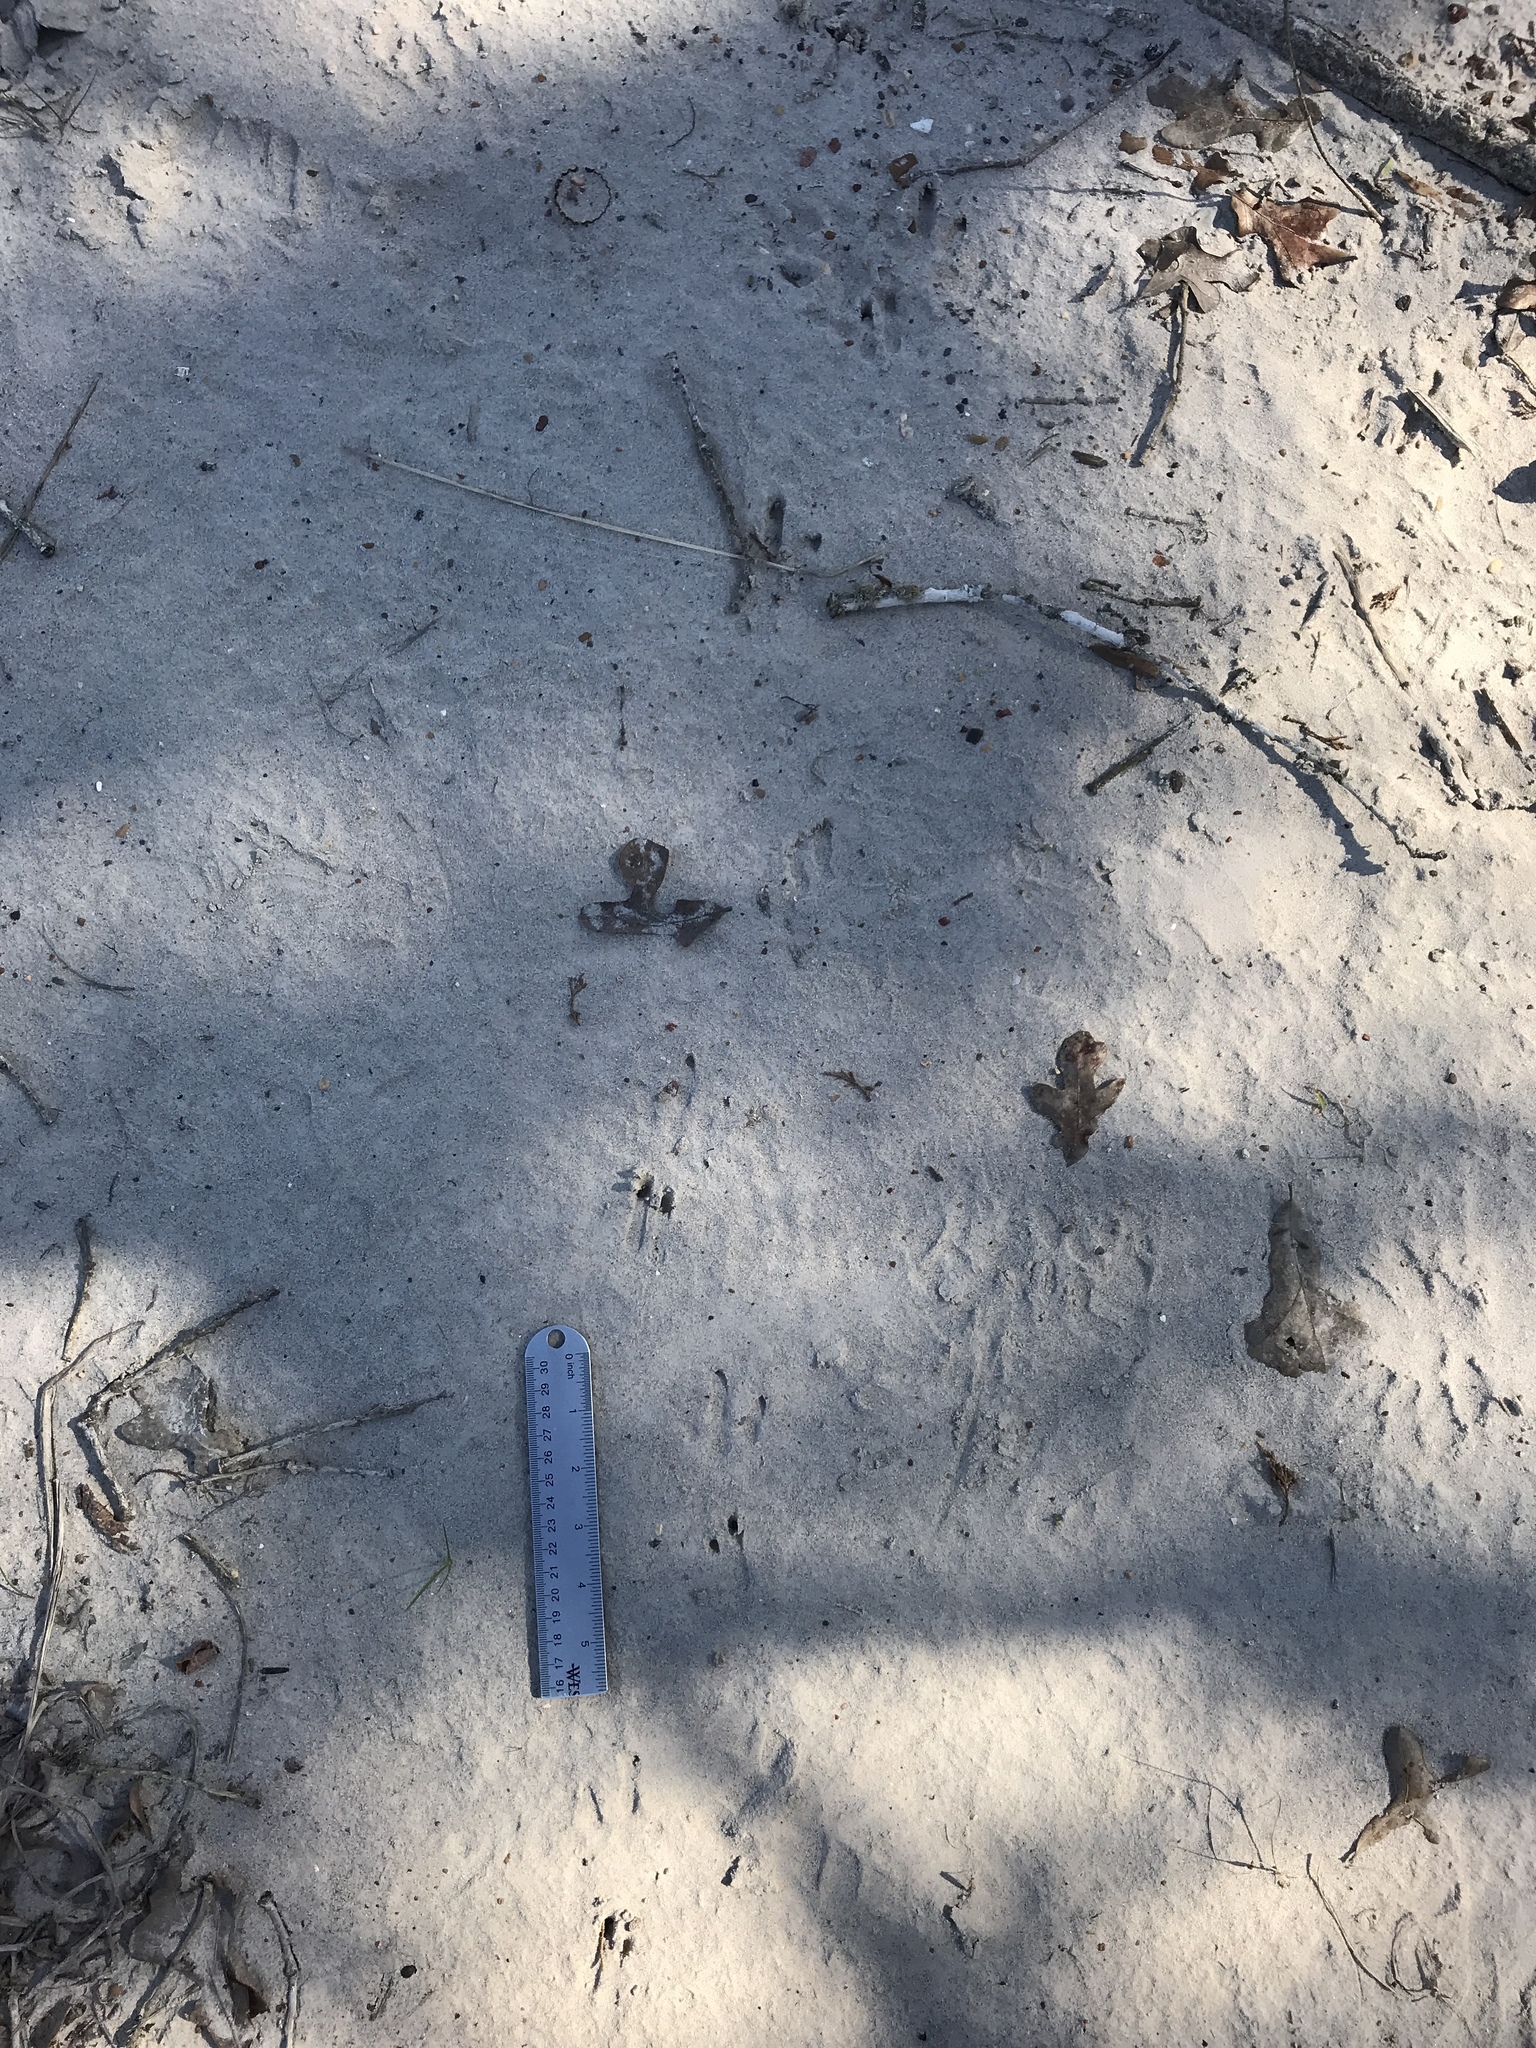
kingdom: Animalia
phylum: Chordata
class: Mammalia
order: Cingulata
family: Dasypodidae
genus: Dasypus
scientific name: Dasypus novemcinctus
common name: Nine-banded armadillo
